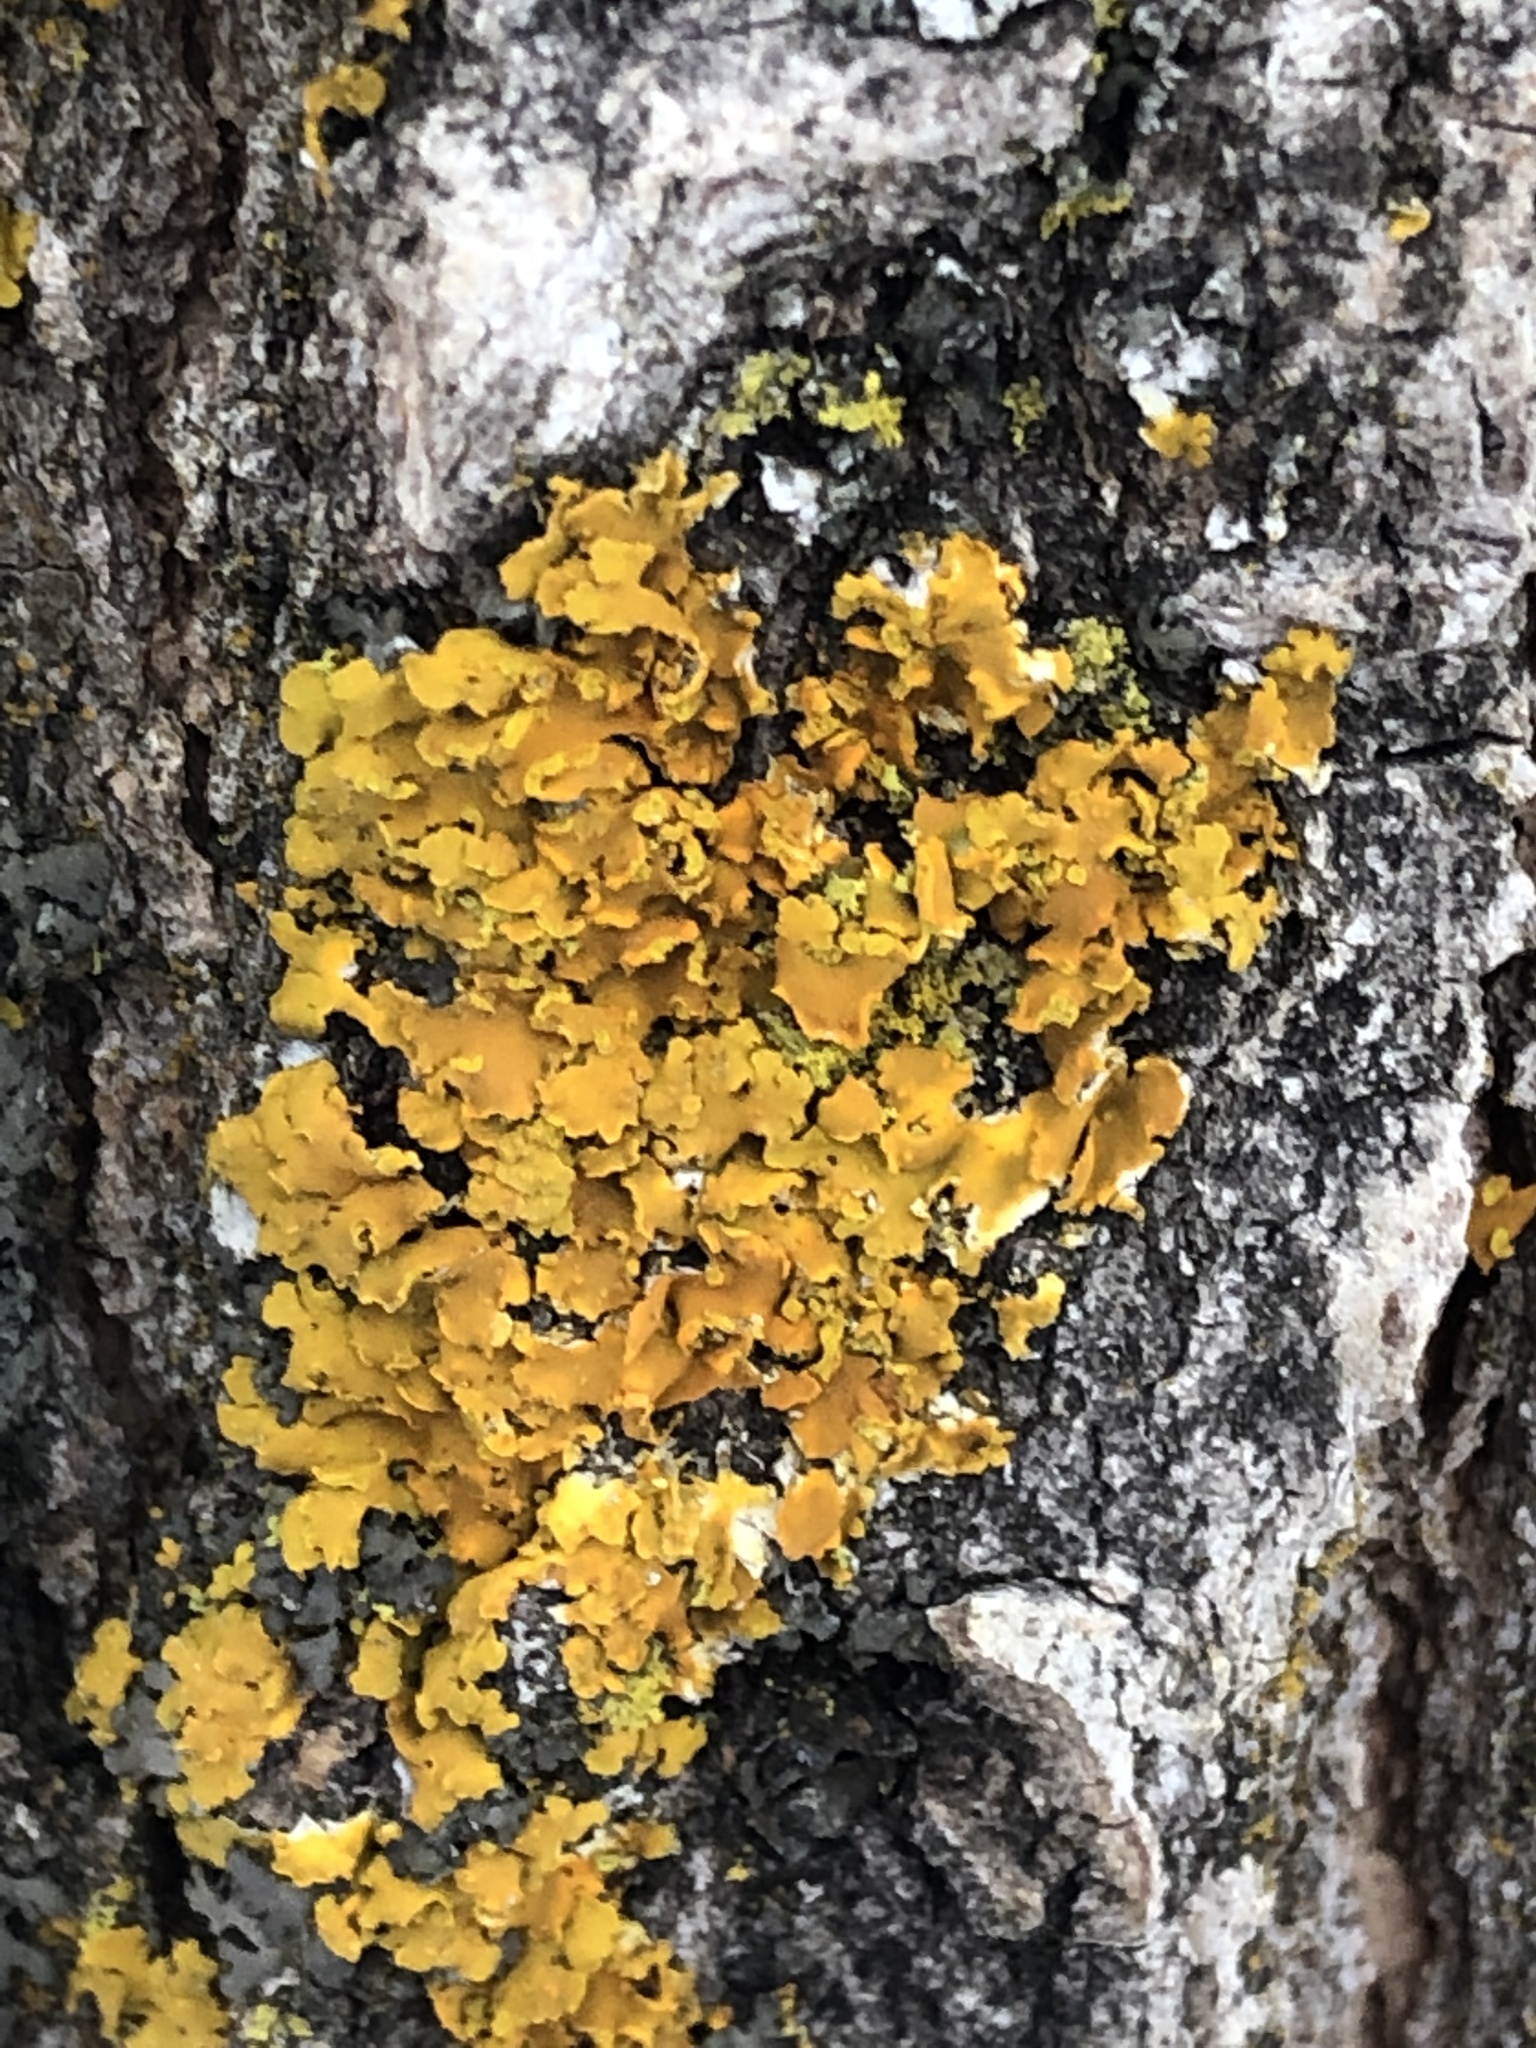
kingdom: Fungi
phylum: Ascomycota
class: Lecanoromycetes
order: Teloschistales
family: Teloschistaceae
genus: Oxneria
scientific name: Oxneria fallax
